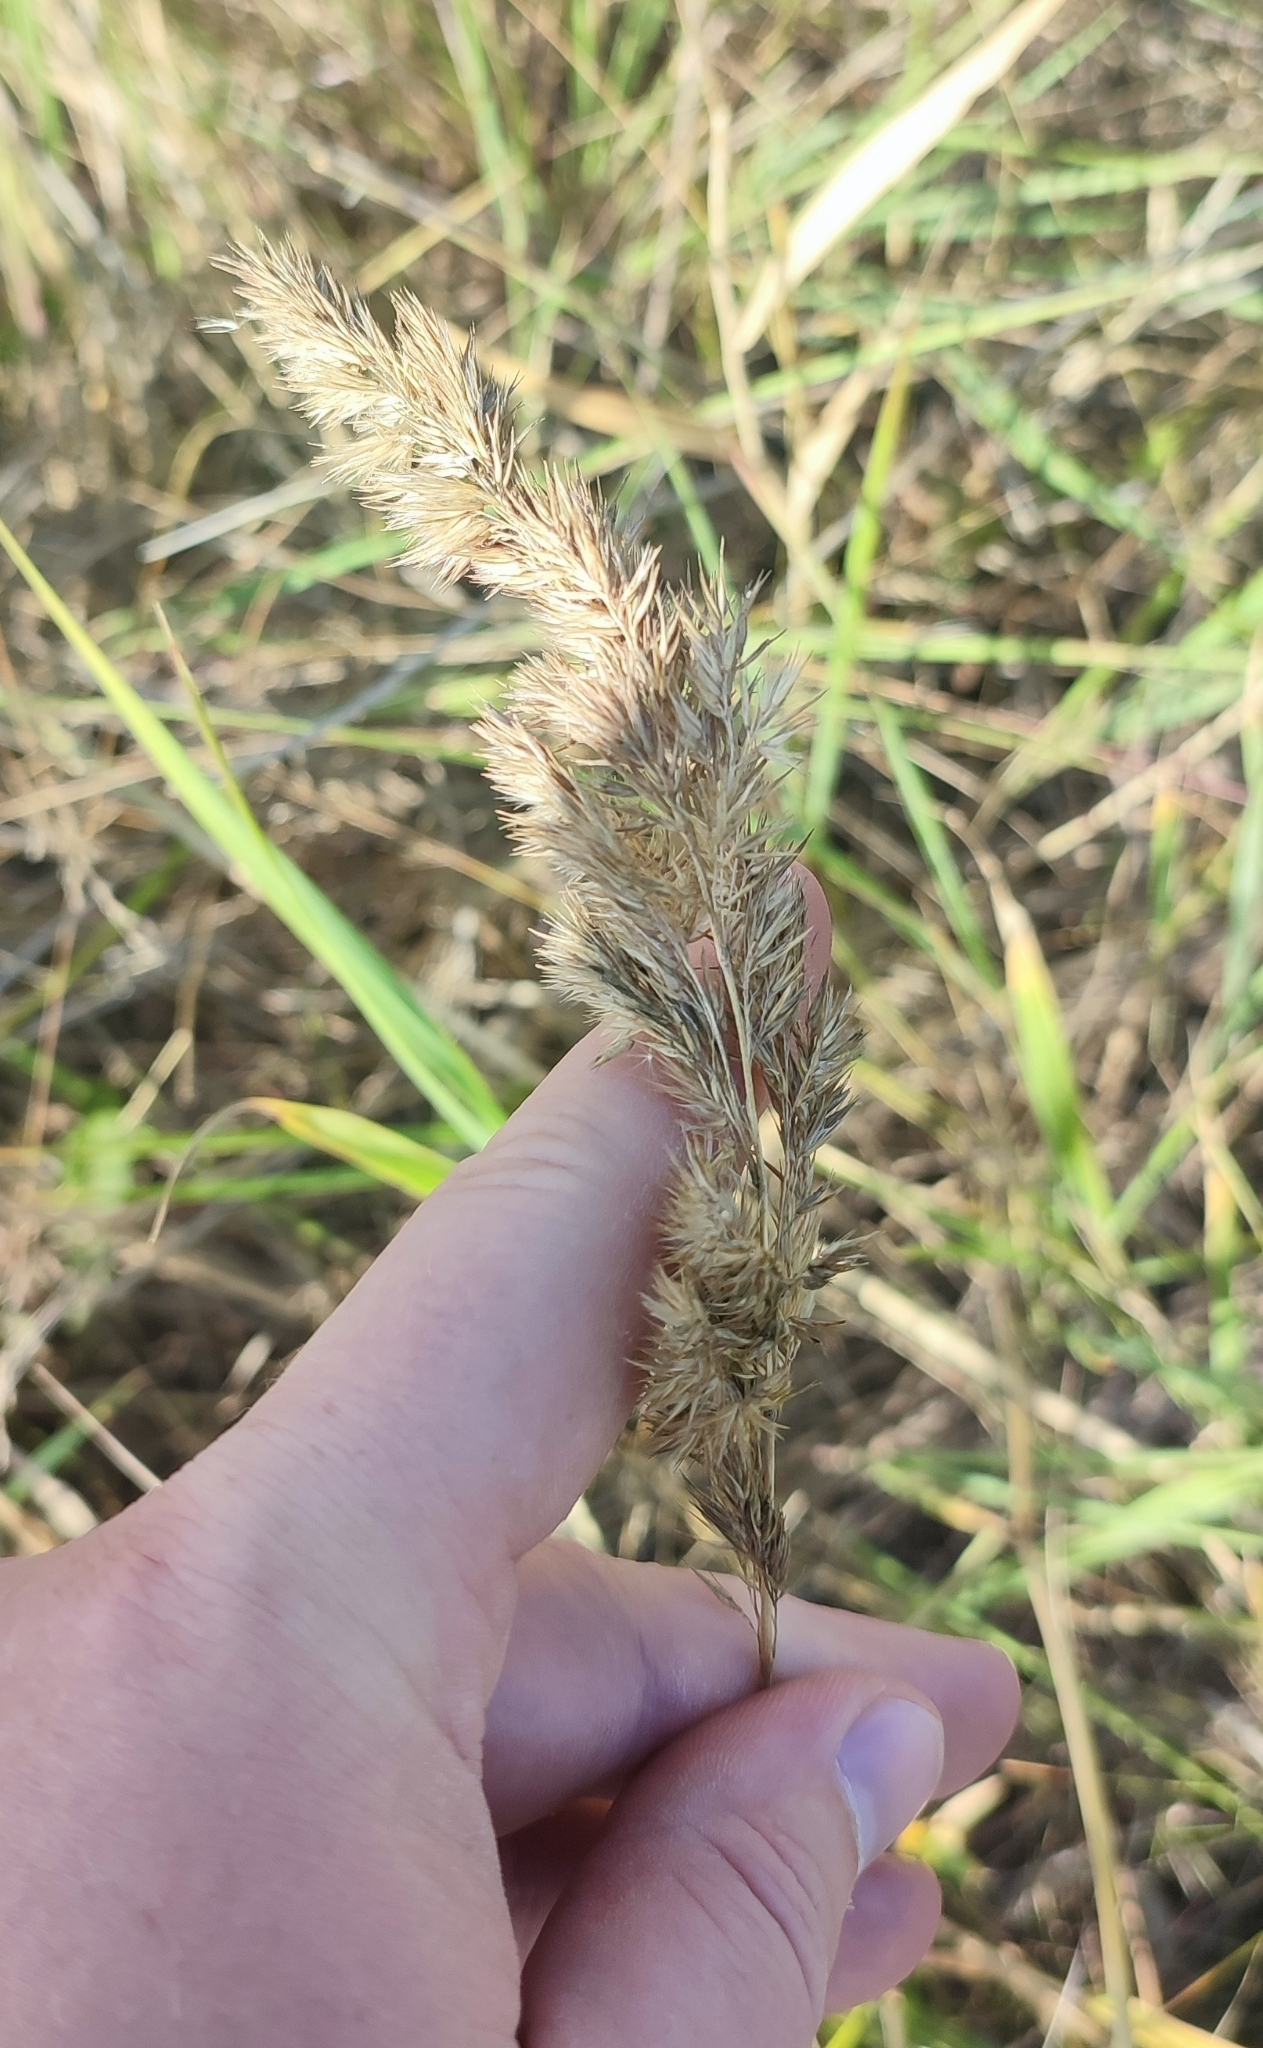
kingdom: Plantae
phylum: Tracheophyta
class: Liliopsida
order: Poales
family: Poaceae
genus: Calamagrostis
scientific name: Calamagrostis epigejos
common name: Wood small-reed
